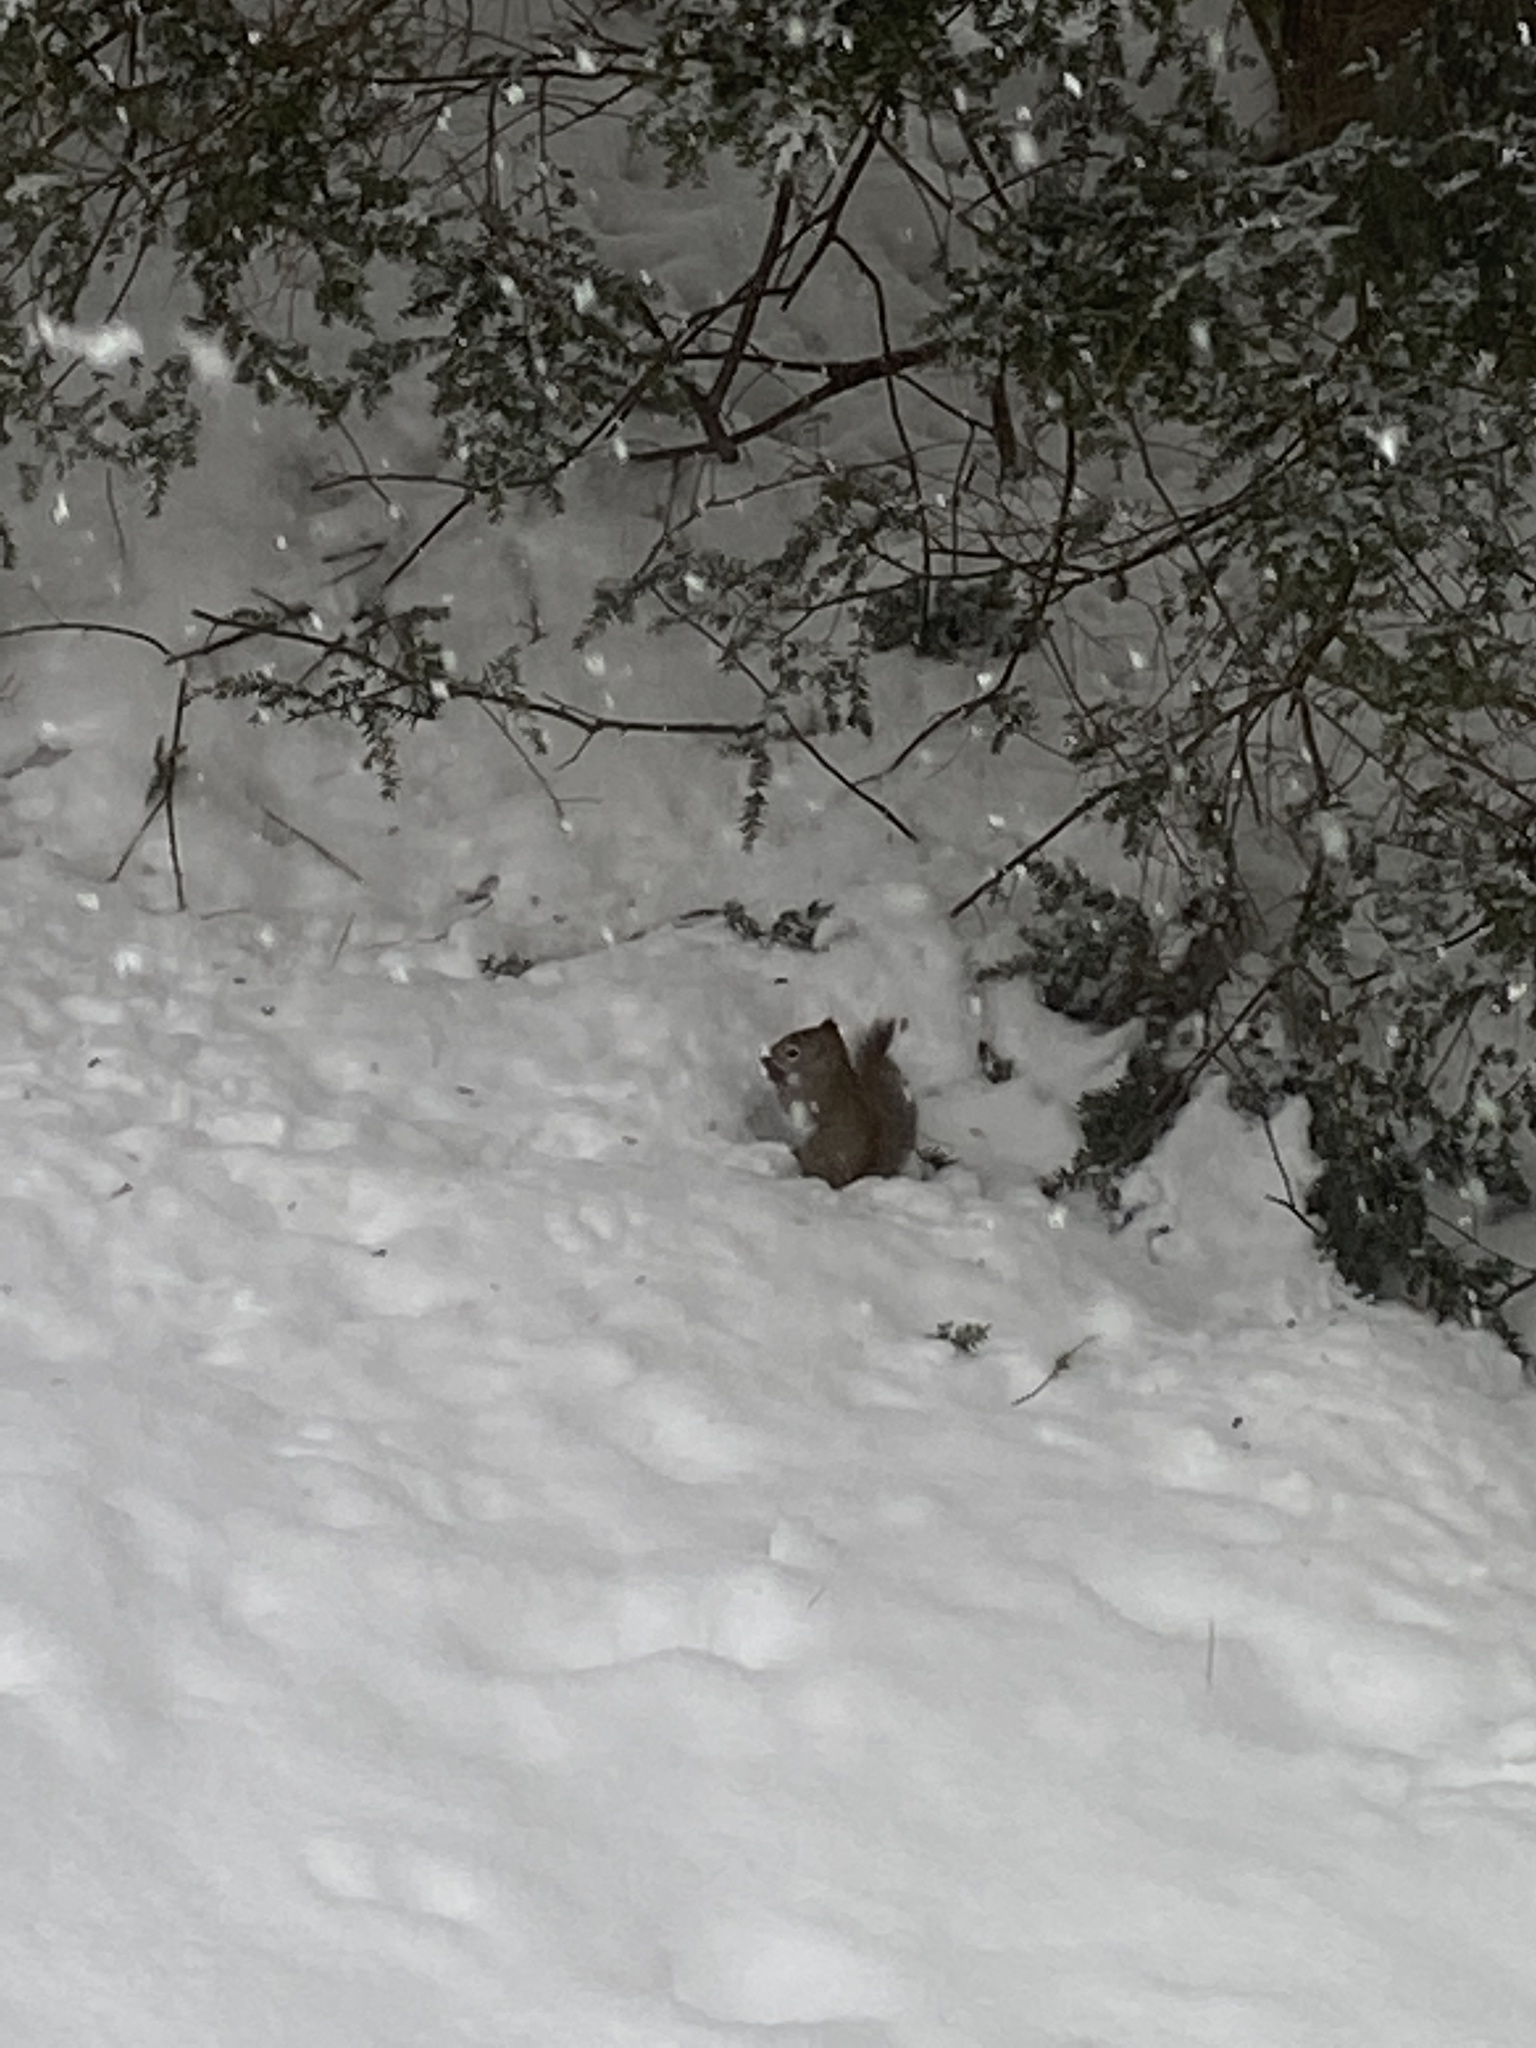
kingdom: Animalia
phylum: Chordata
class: Mammalia
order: Rodentia
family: Sciuridae
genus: Tamiasciurus
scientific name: Tamiasciurus hudsonicus
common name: Red squirrel
